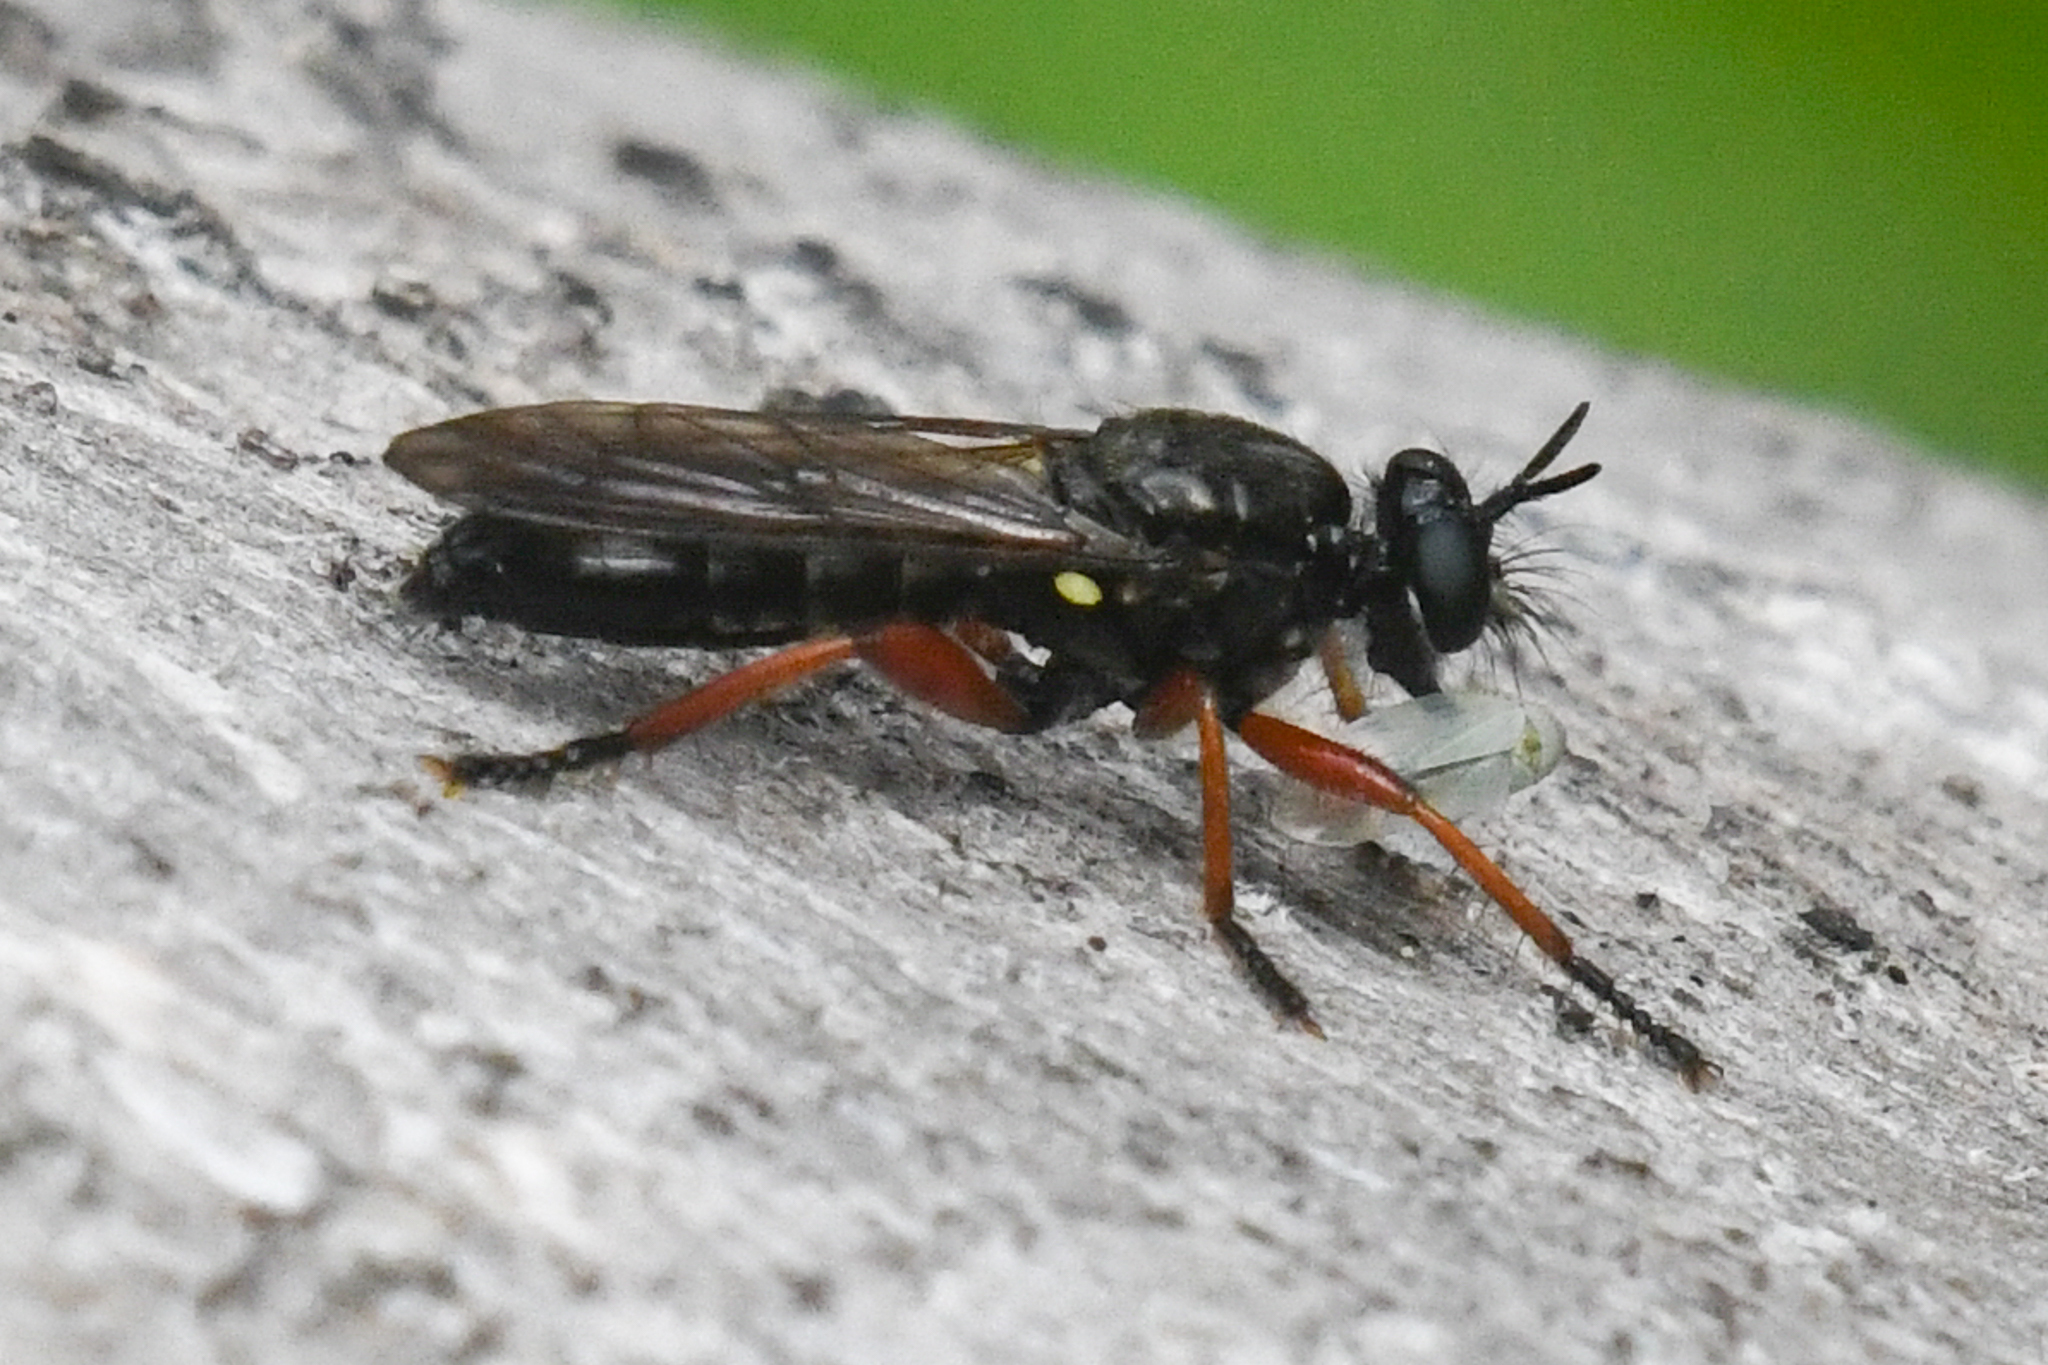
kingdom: Animalia
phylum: Arthropoda
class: Insecta
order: Diptera
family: Asilidae
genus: Laphria
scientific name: Laphria sadales
